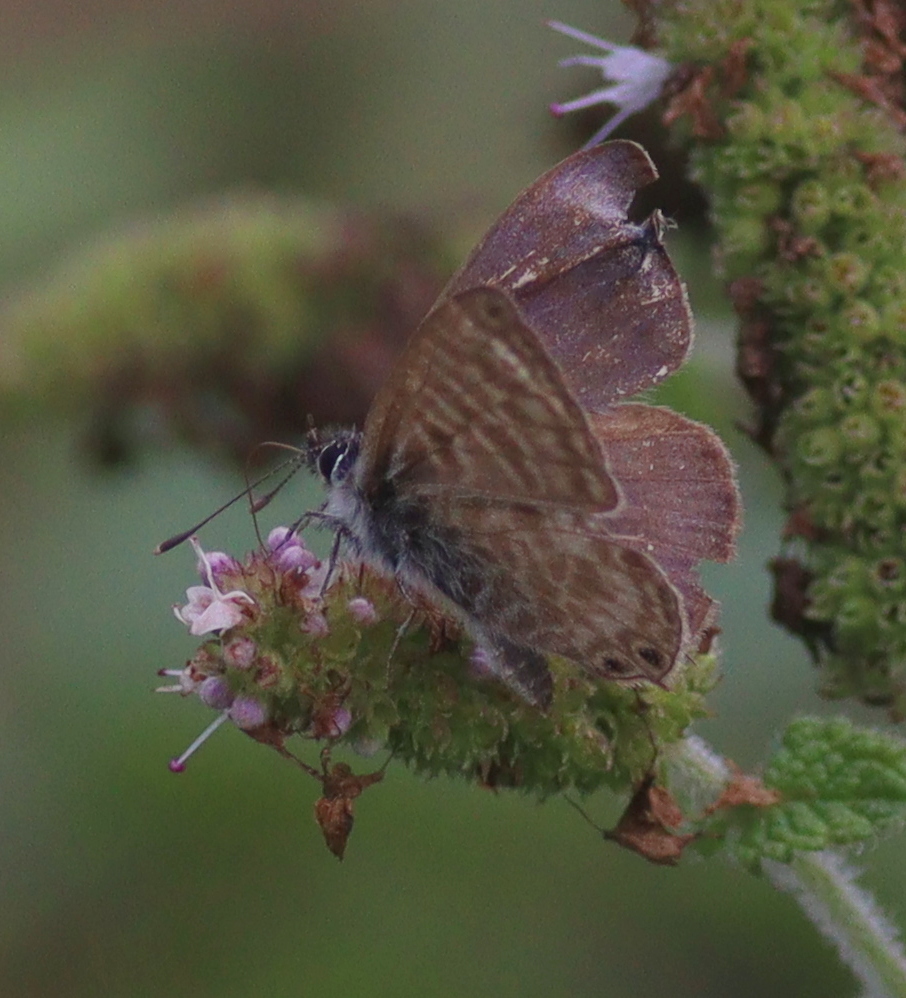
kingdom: Animalia
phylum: Arthropoda
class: Insecta
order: Lepidoptera
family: Lycaenidae
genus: Leptotes
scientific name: Leptotes pirithous
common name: Lang's short-tailed blue
